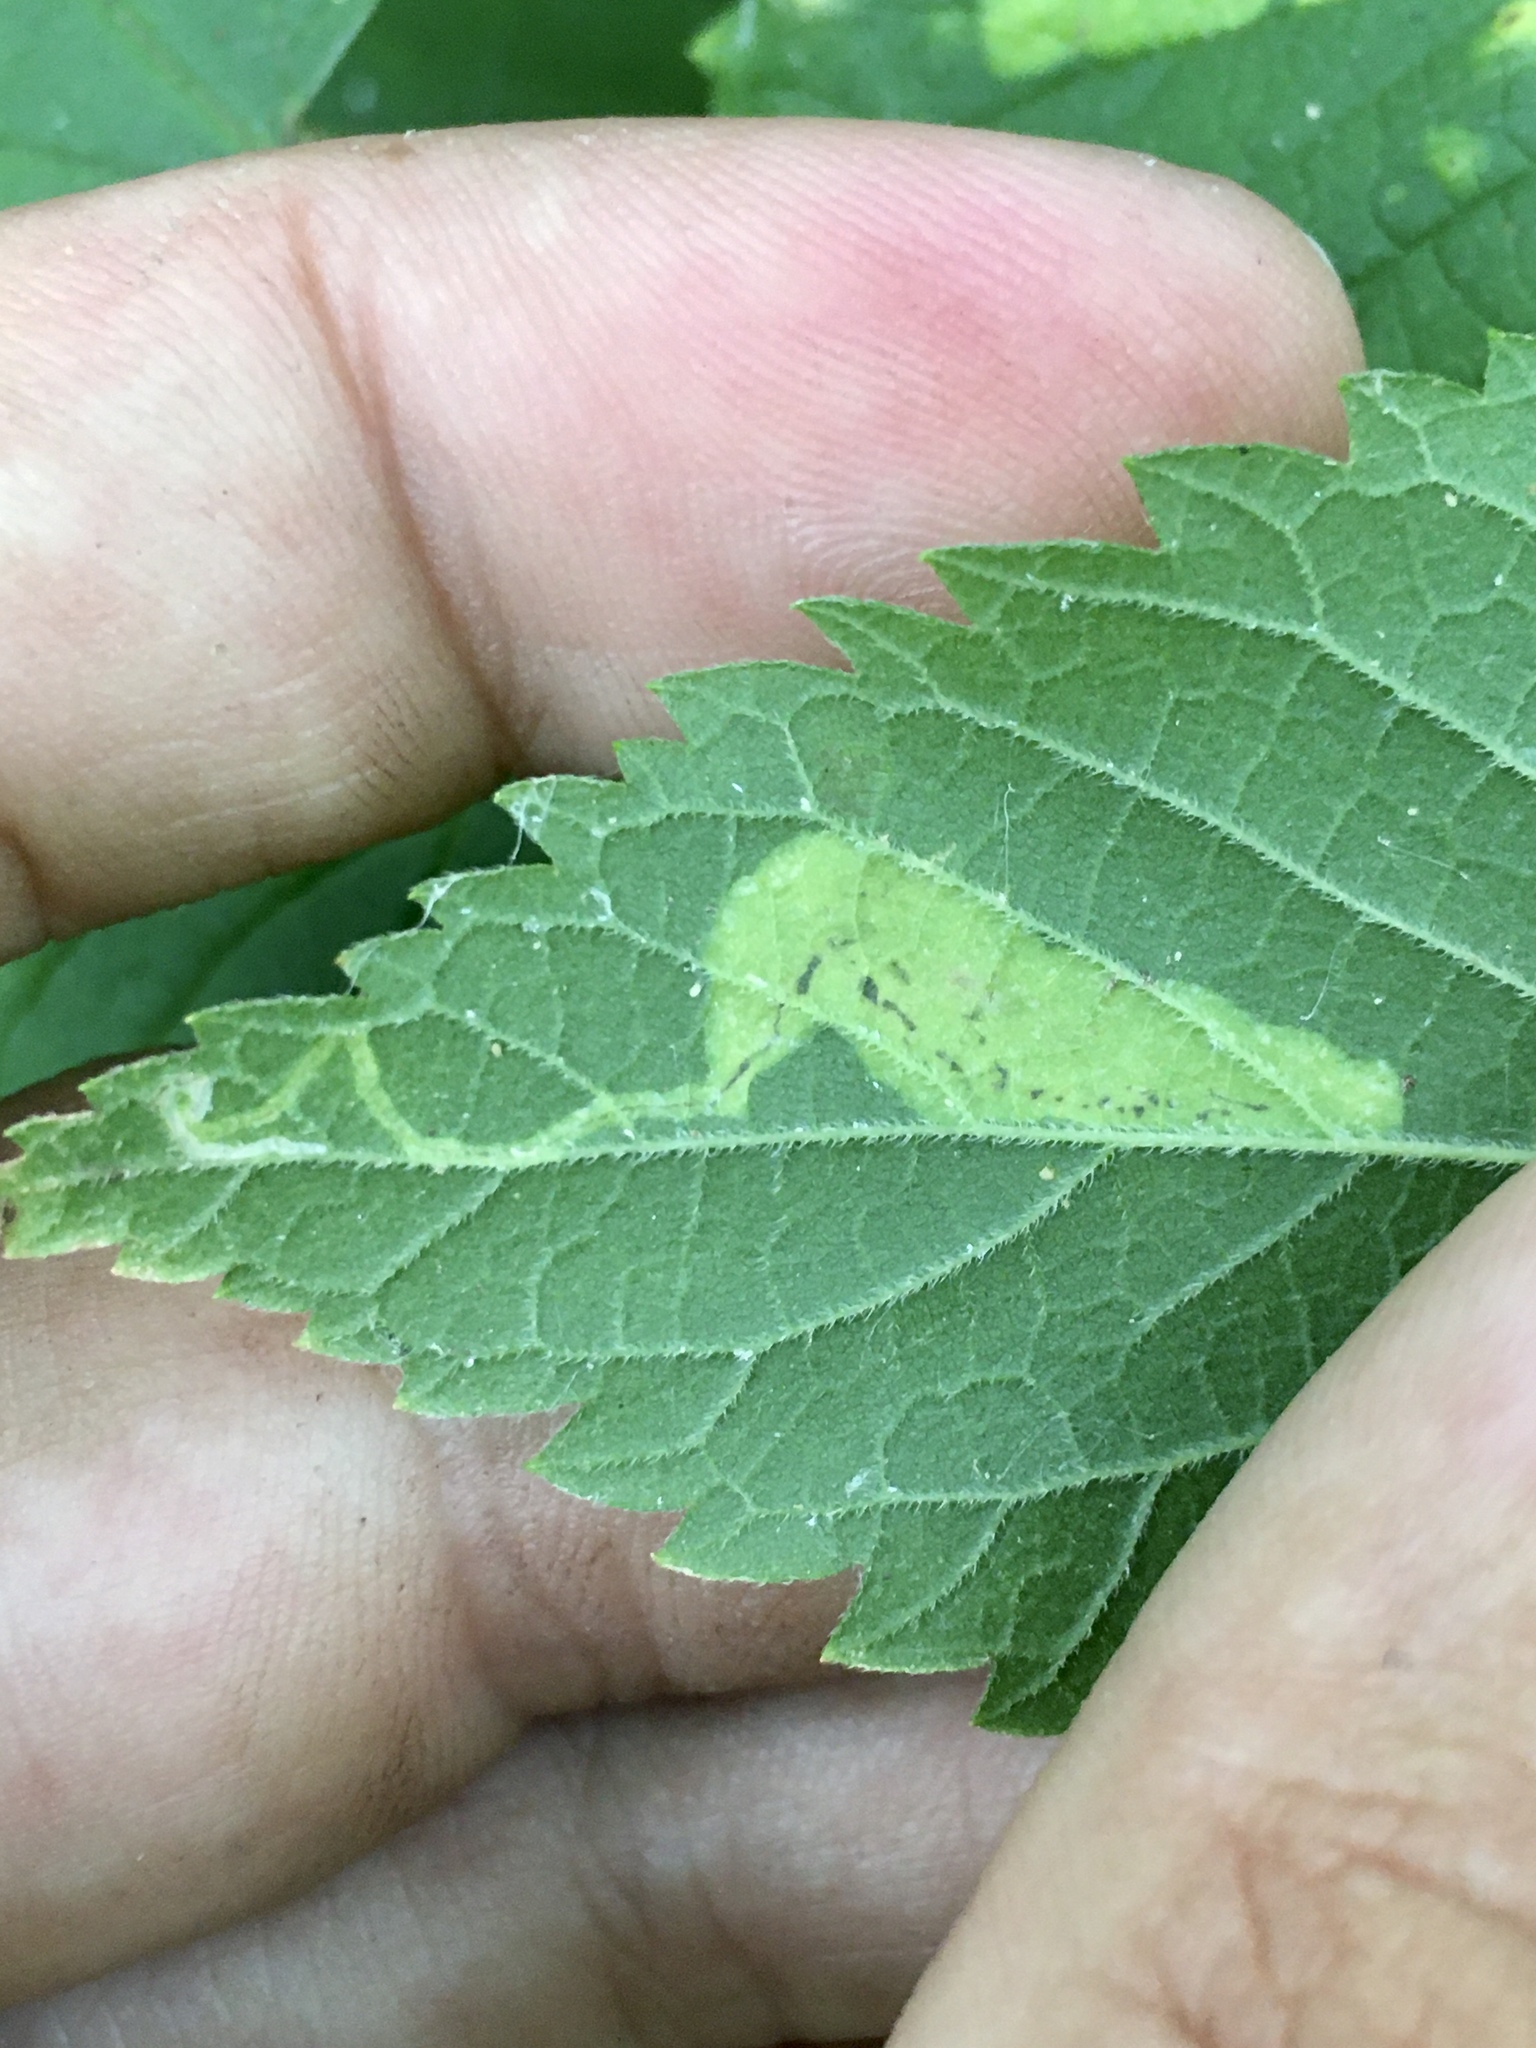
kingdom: Animalia
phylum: Arthropoda
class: Insecta
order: Lepidoptera
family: Gracillariidae
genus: Phyllonorycter
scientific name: Phyllonorycter celtisella
